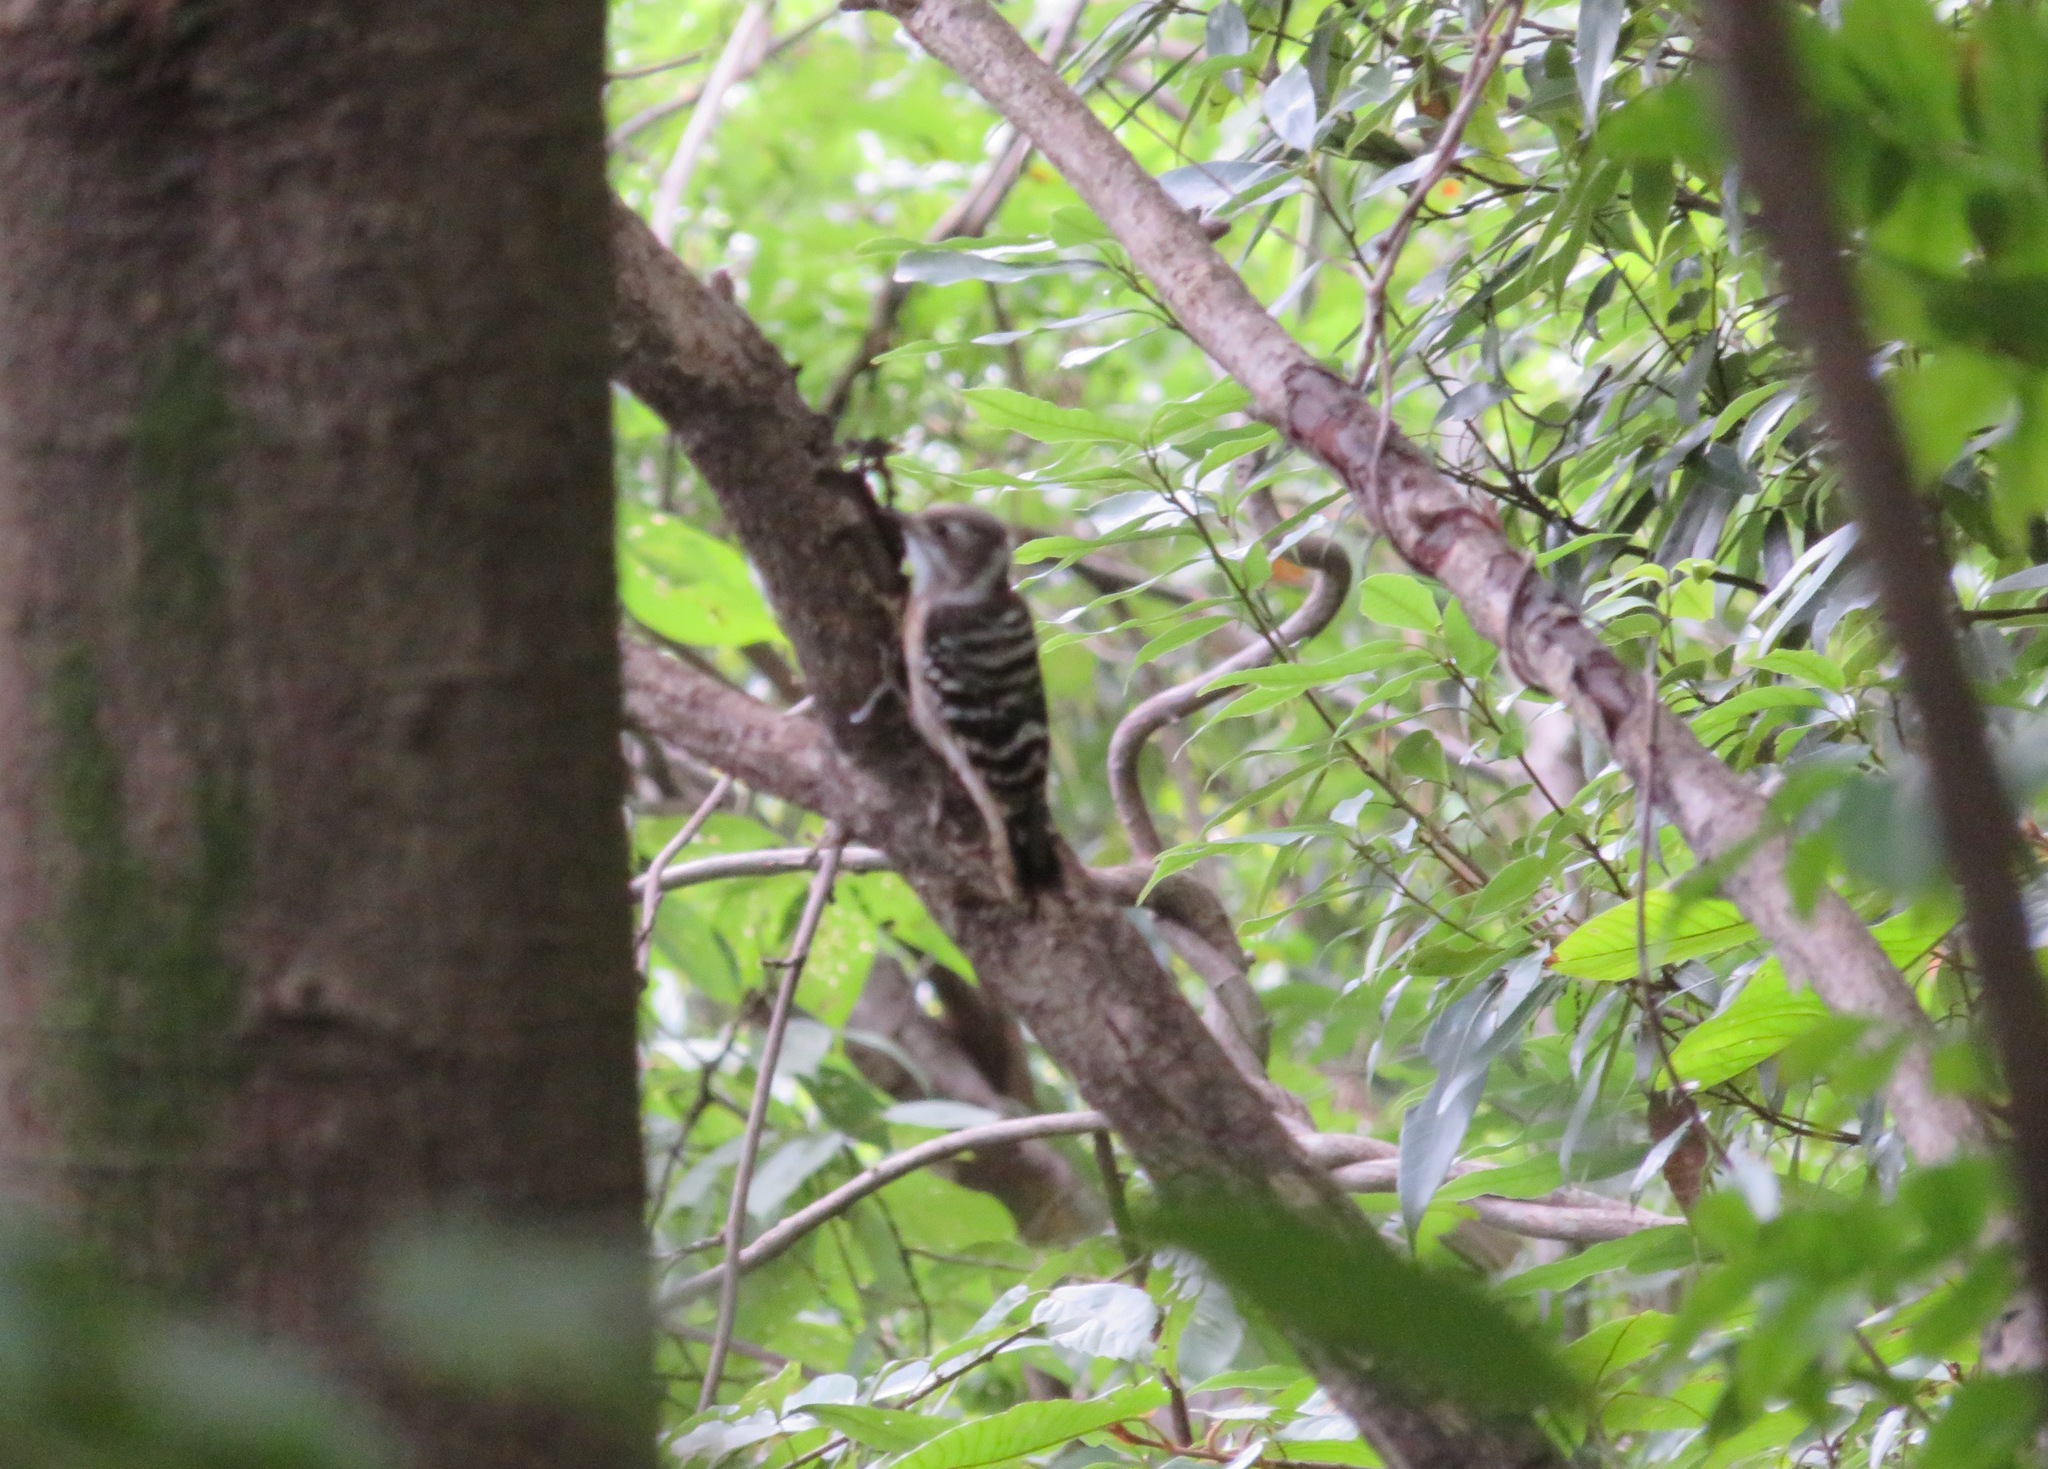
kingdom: Animalia
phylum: Chordata
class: Aves
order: Piciformes
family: Picidae
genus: Yungipicus
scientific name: Yungipicus kizuki
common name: Japanese pygmy woodpecker
